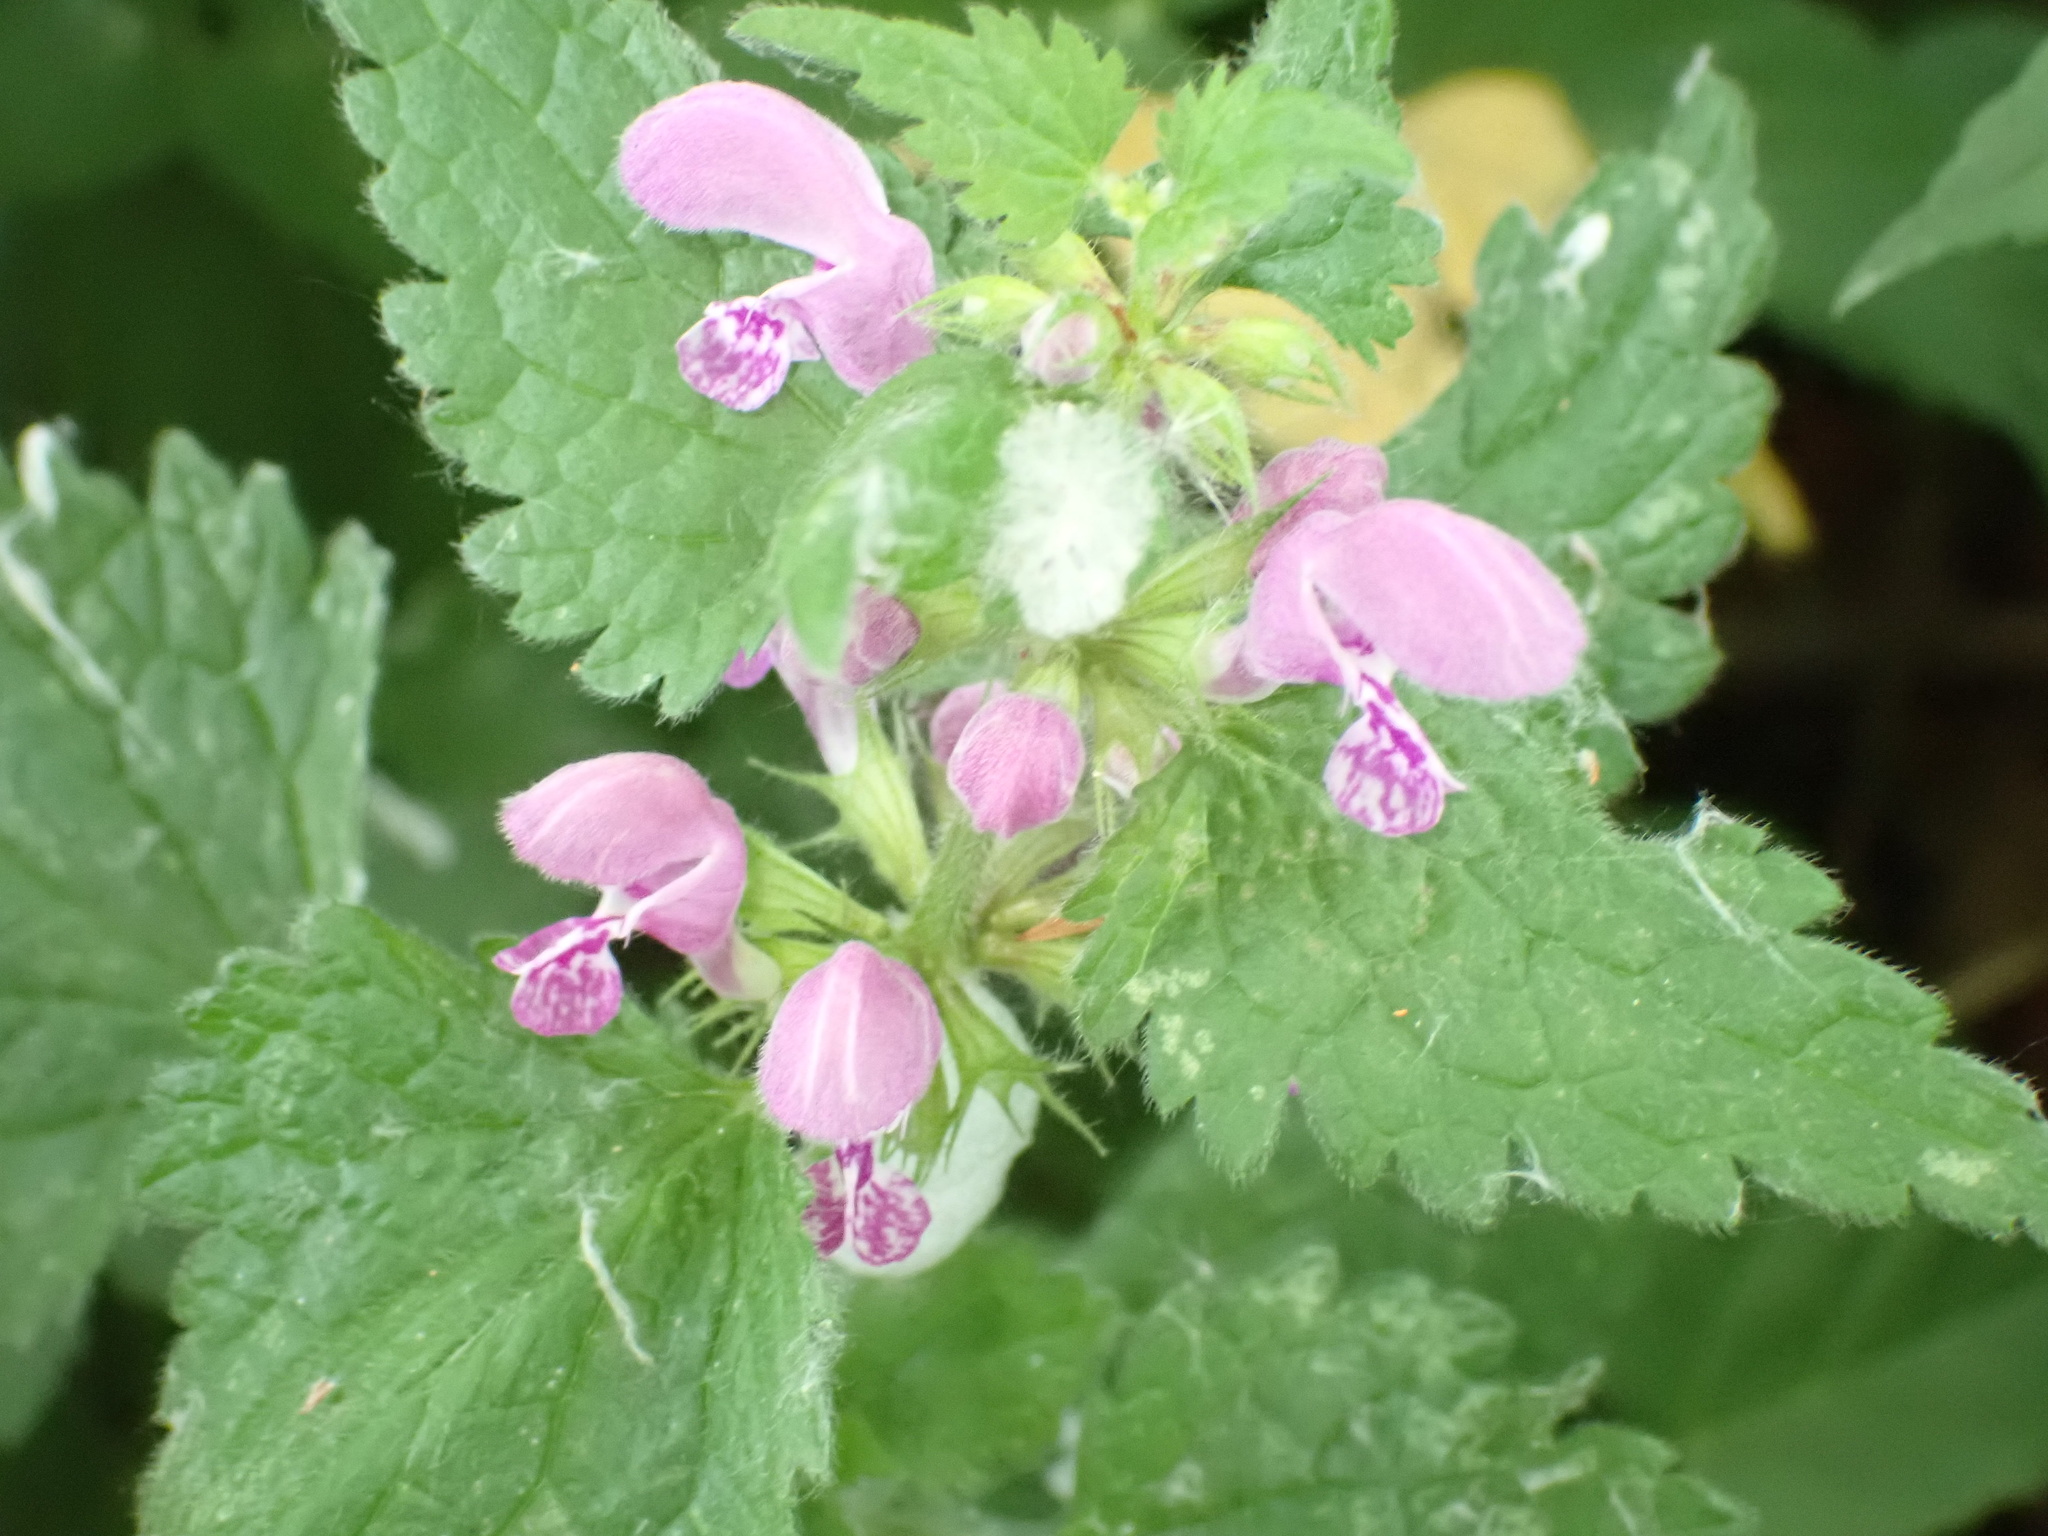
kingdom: Plantae
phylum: Tracheophyta
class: Magnoliopsida
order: Lamiales
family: Lamiaceae
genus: Lamium
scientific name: Lamium maculatum
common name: Spotted dead-nettle
